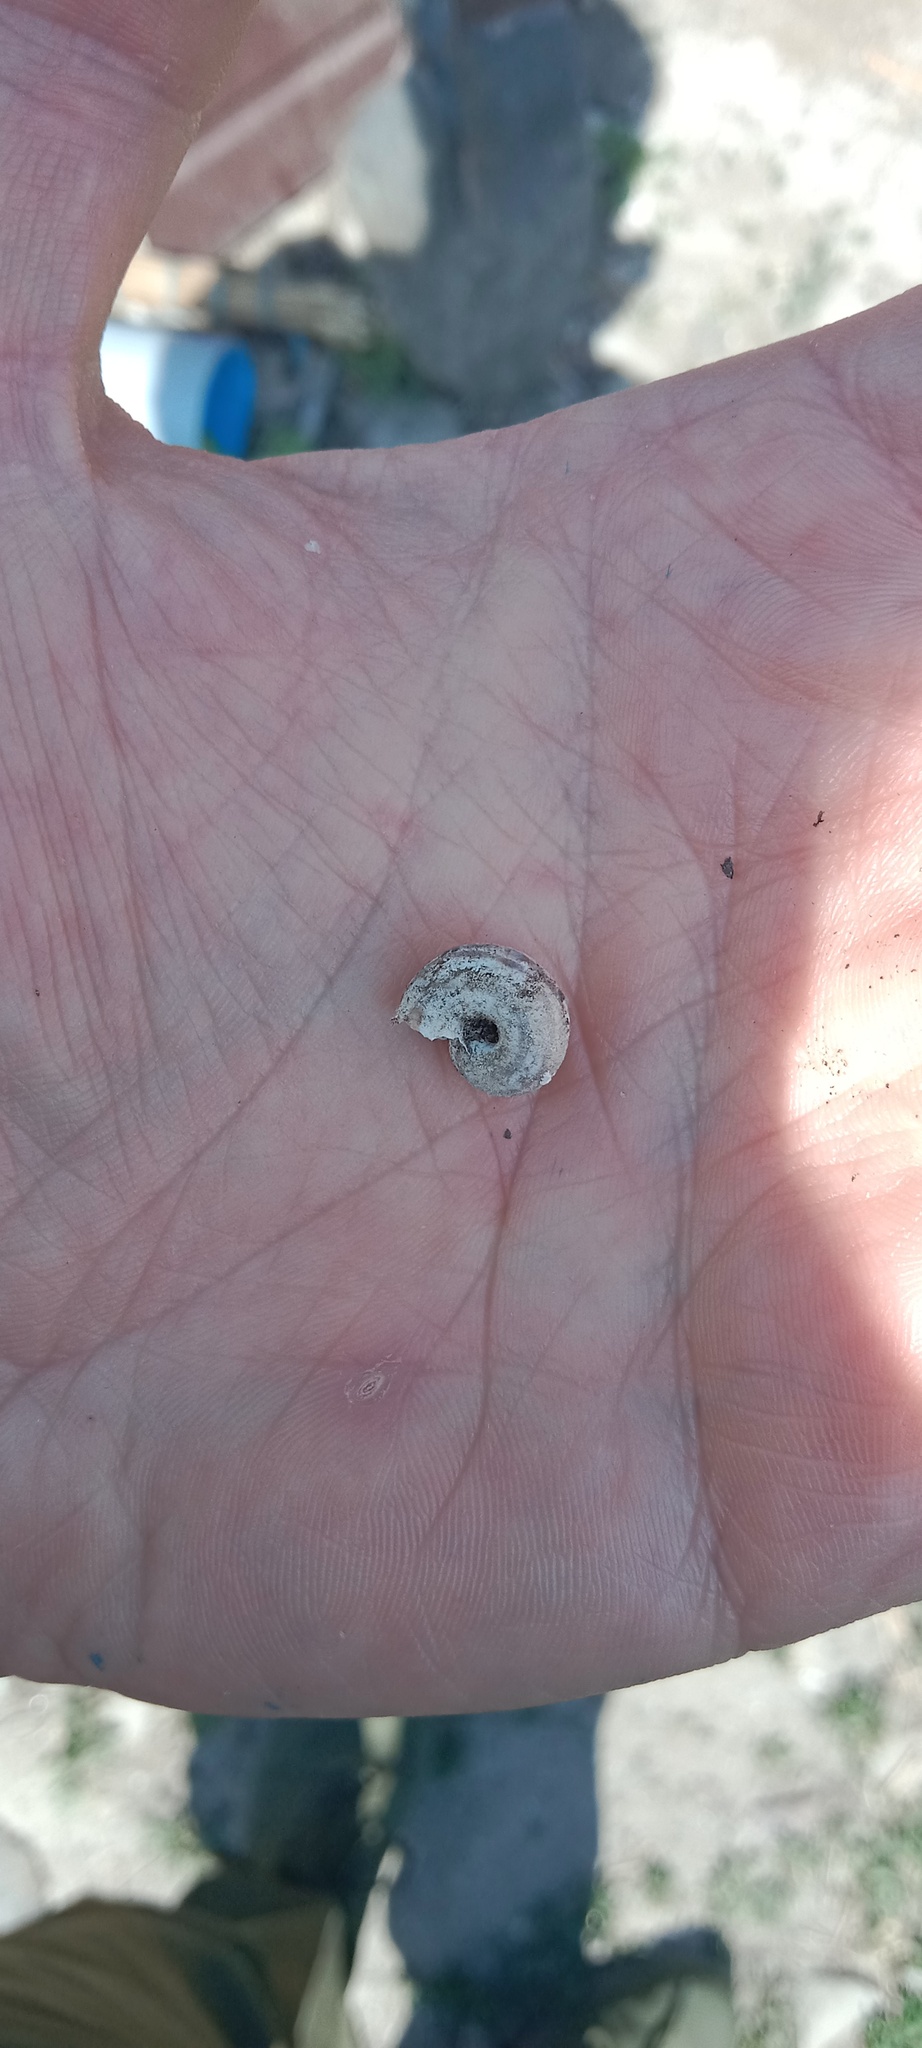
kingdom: Animalia
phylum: Mollusca
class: Gastropoda
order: Stylommatophora
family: Helicidae
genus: Caucasotachea
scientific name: Caucasotachea vindobonensis
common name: European helicid land snail
